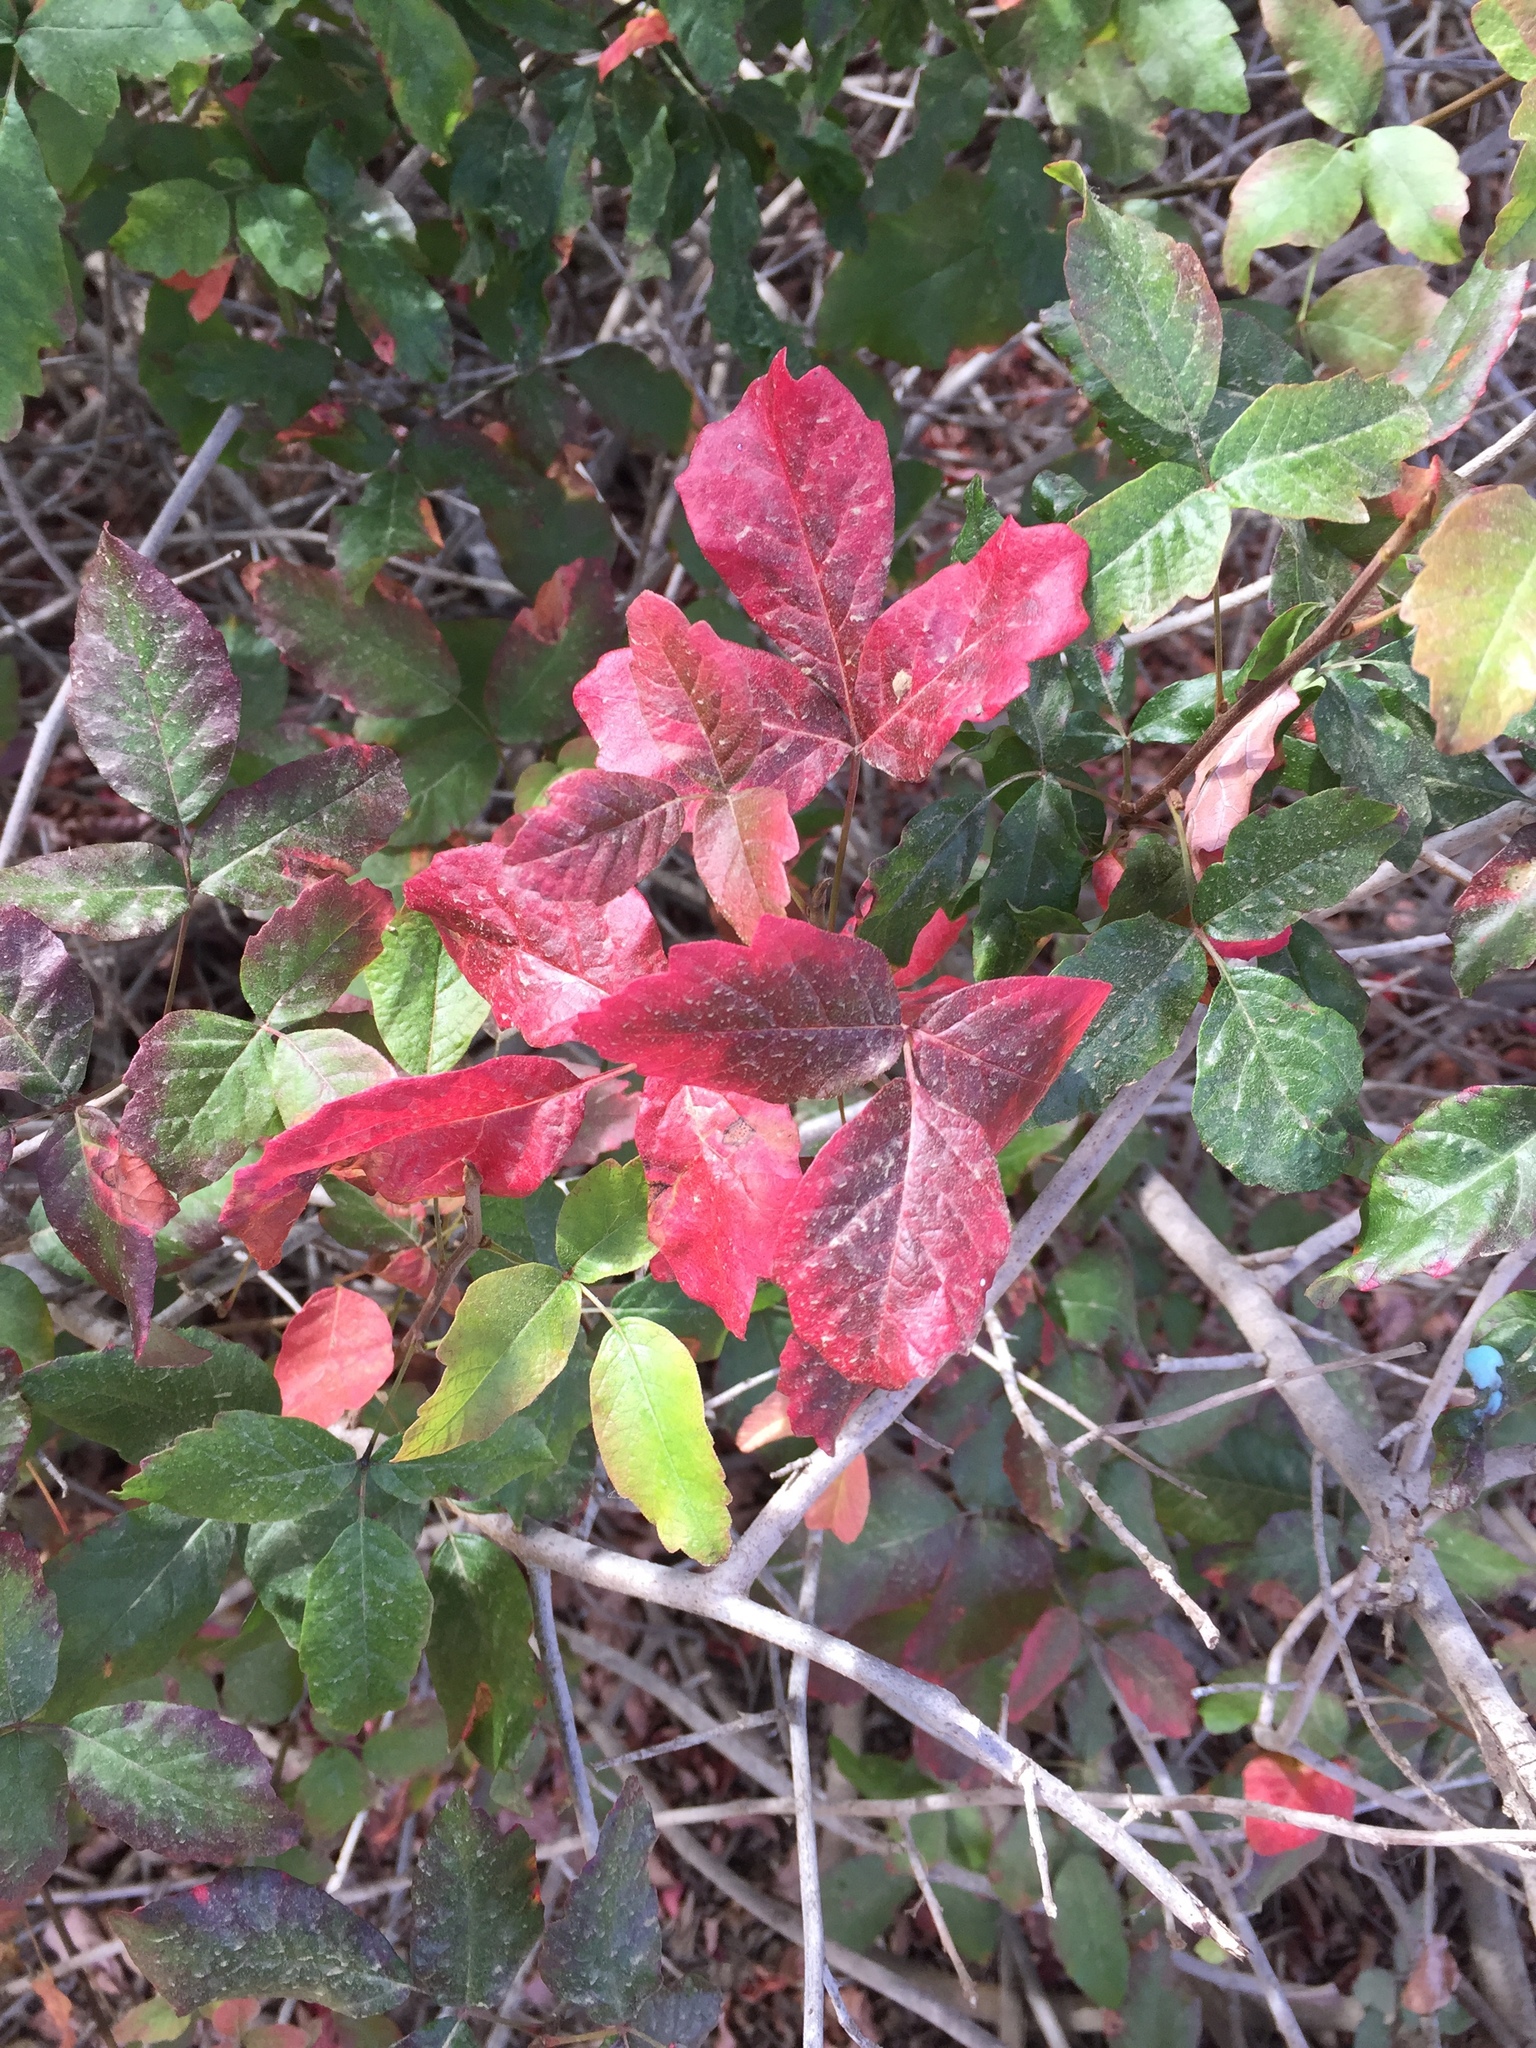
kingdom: Plantae
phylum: Tracheophyta
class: Magnoliopsida
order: Sapindales
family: Anacardiaceae
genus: Toxicodendron
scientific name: Toxicodendron diversilobum
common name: Pacific poison-oak
